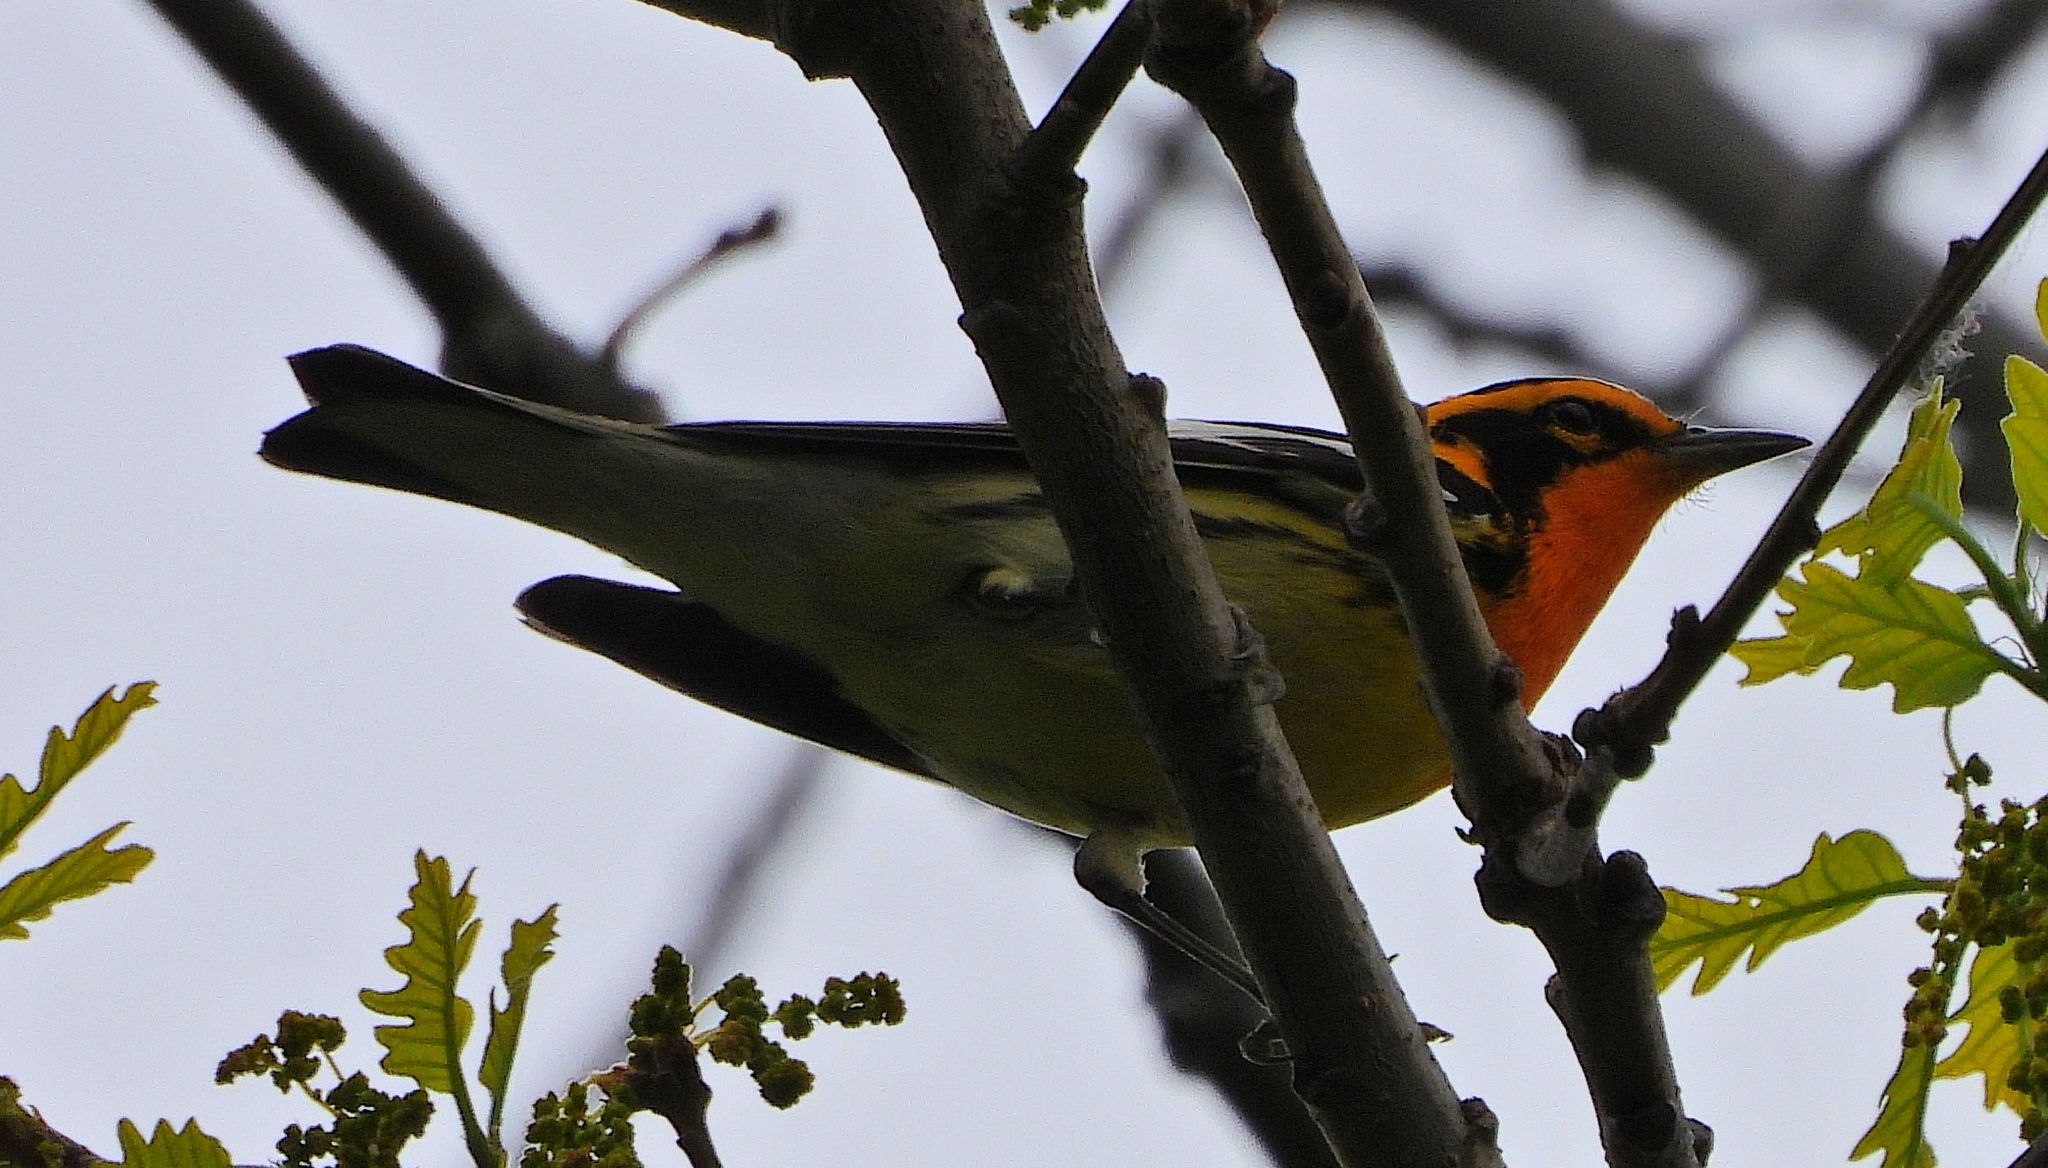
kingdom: Animalia
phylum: Chordata
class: Aves
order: Passeriformes
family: Parulidae
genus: Setophaga
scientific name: Setophaga fusca
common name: Blackburnian warbler
